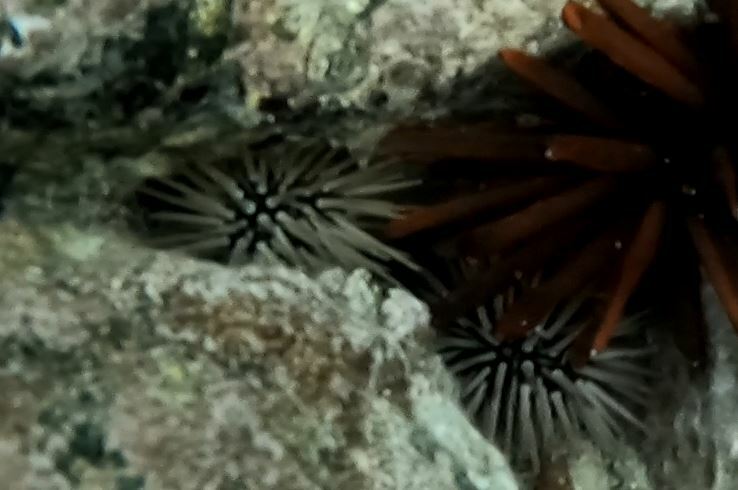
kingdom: Animalia
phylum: Echinodermata
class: Echinoidea
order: Camarodonta
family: Echinometridae
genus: Echinometra
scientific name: Echinometra mathaei
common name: Rock-boring urchin
